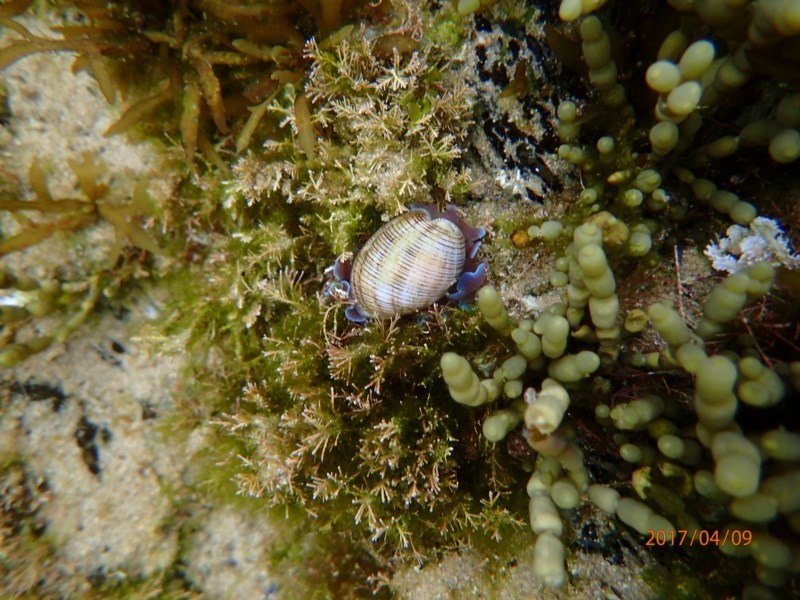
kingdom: Animalia
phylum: Mollusca
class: Gastropoda
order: Cephalaspidea
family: Aplustridae
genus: Hydatina
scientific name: Hydatina physis
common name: Brown-line paperbubble
